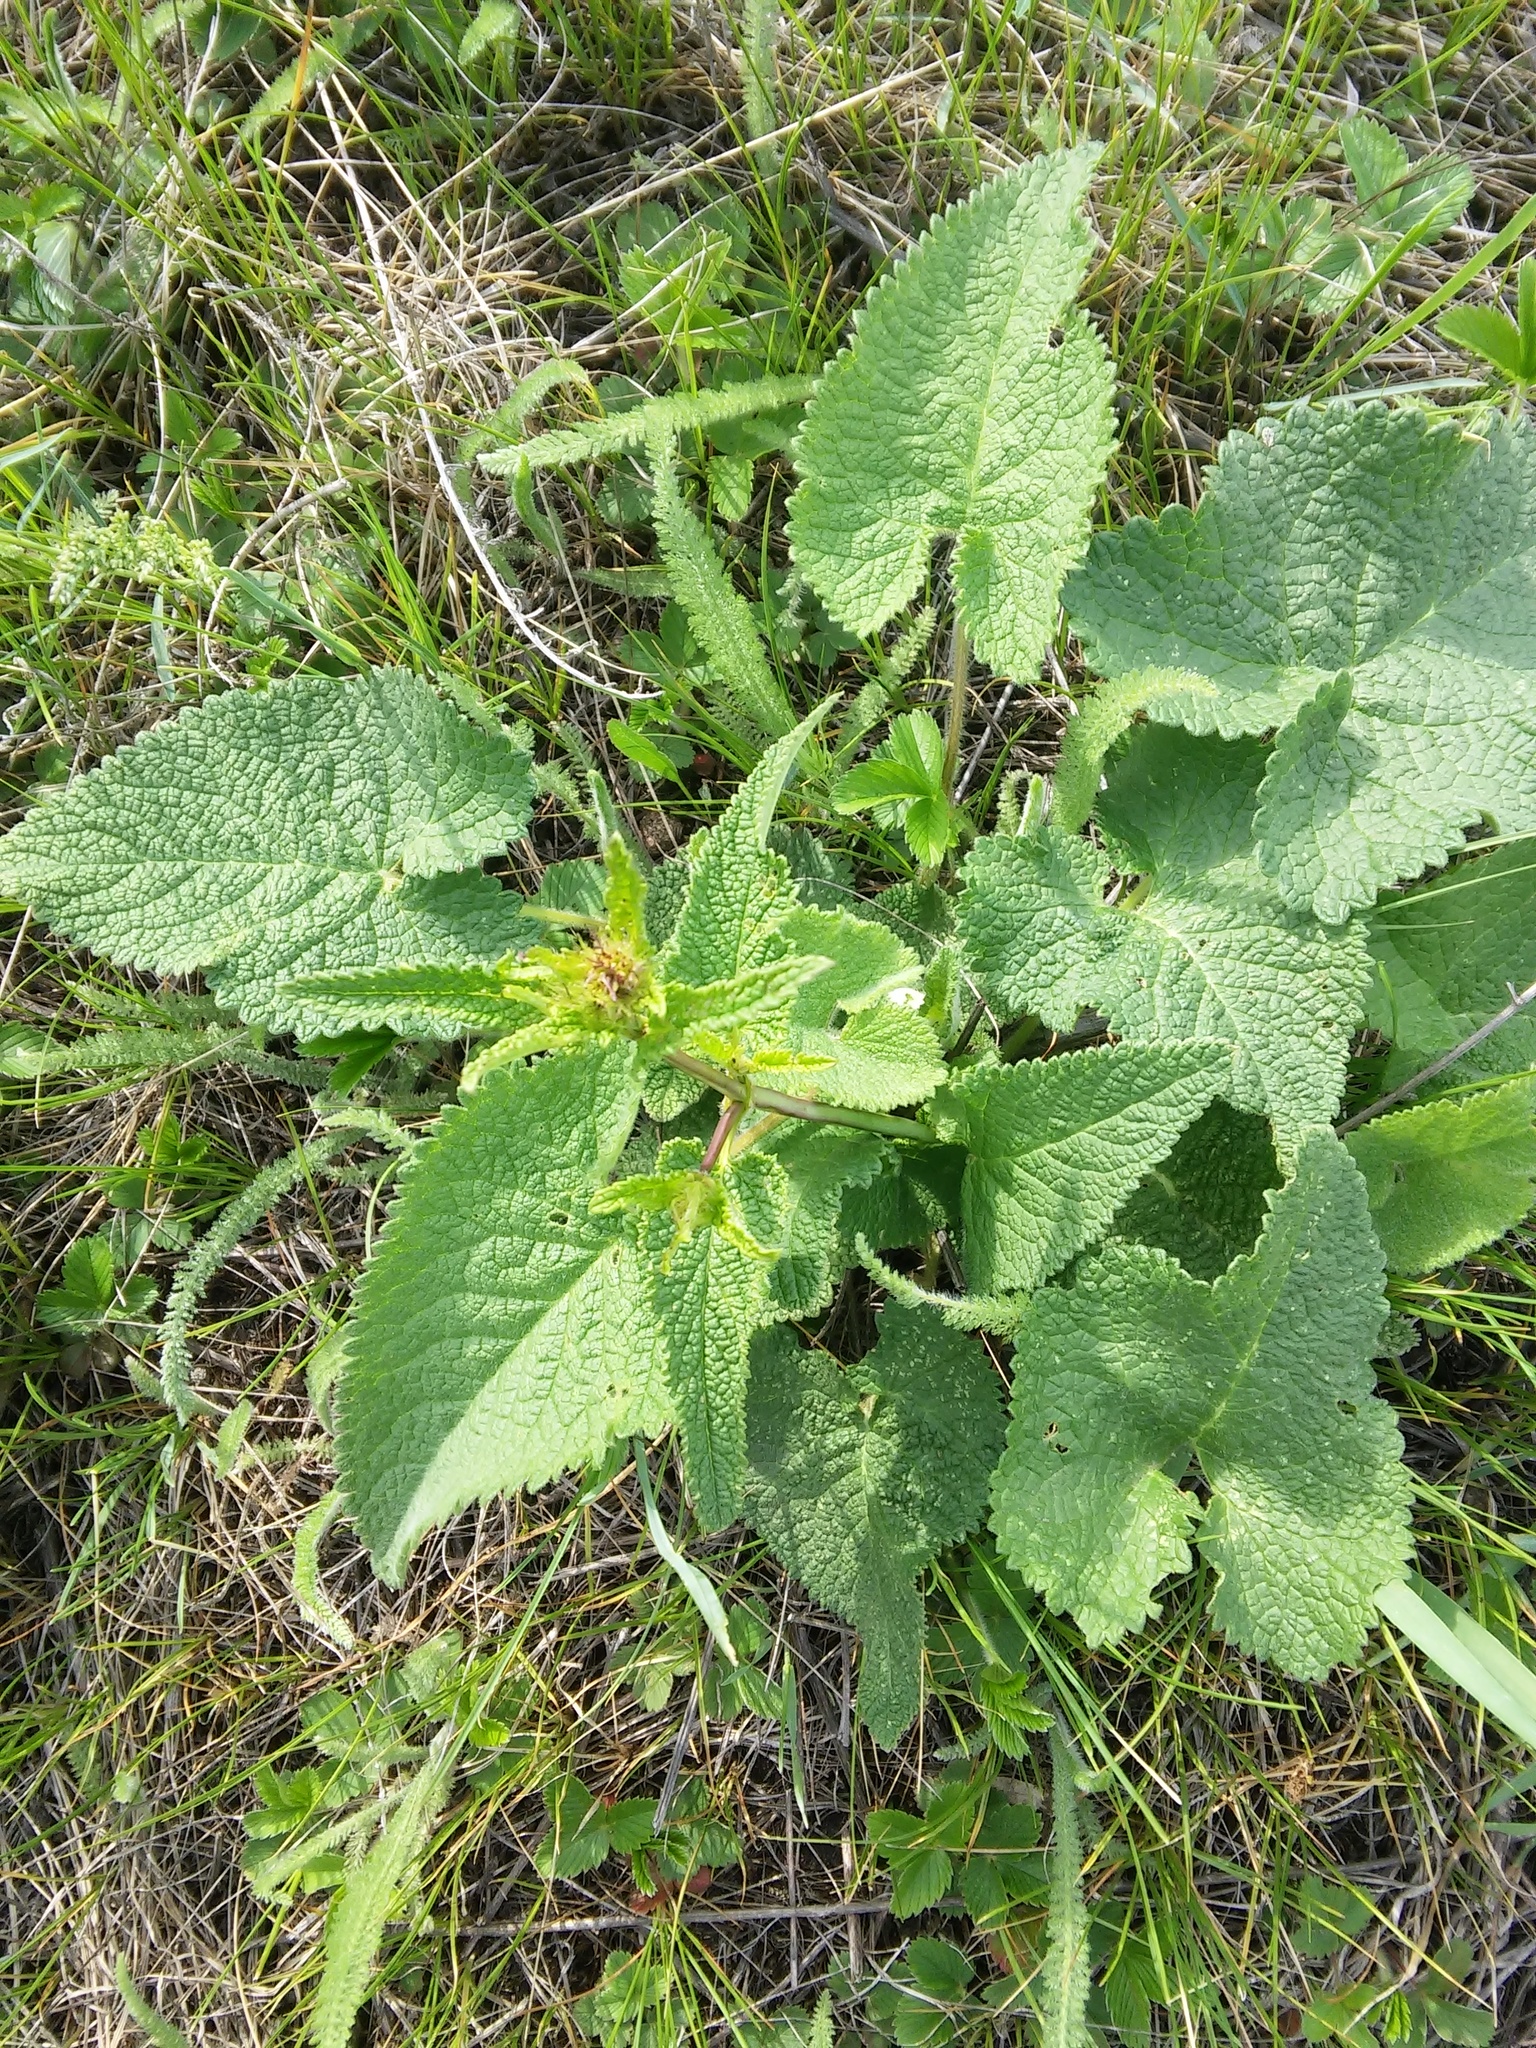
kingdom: Plantae
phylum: Tracheophyta
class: Magnoliopsida
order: Lamiales
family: Lamiaceae
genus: Phlomoides
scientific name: Phlomoides tuberosa
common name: Tuberous jerusalem sage
